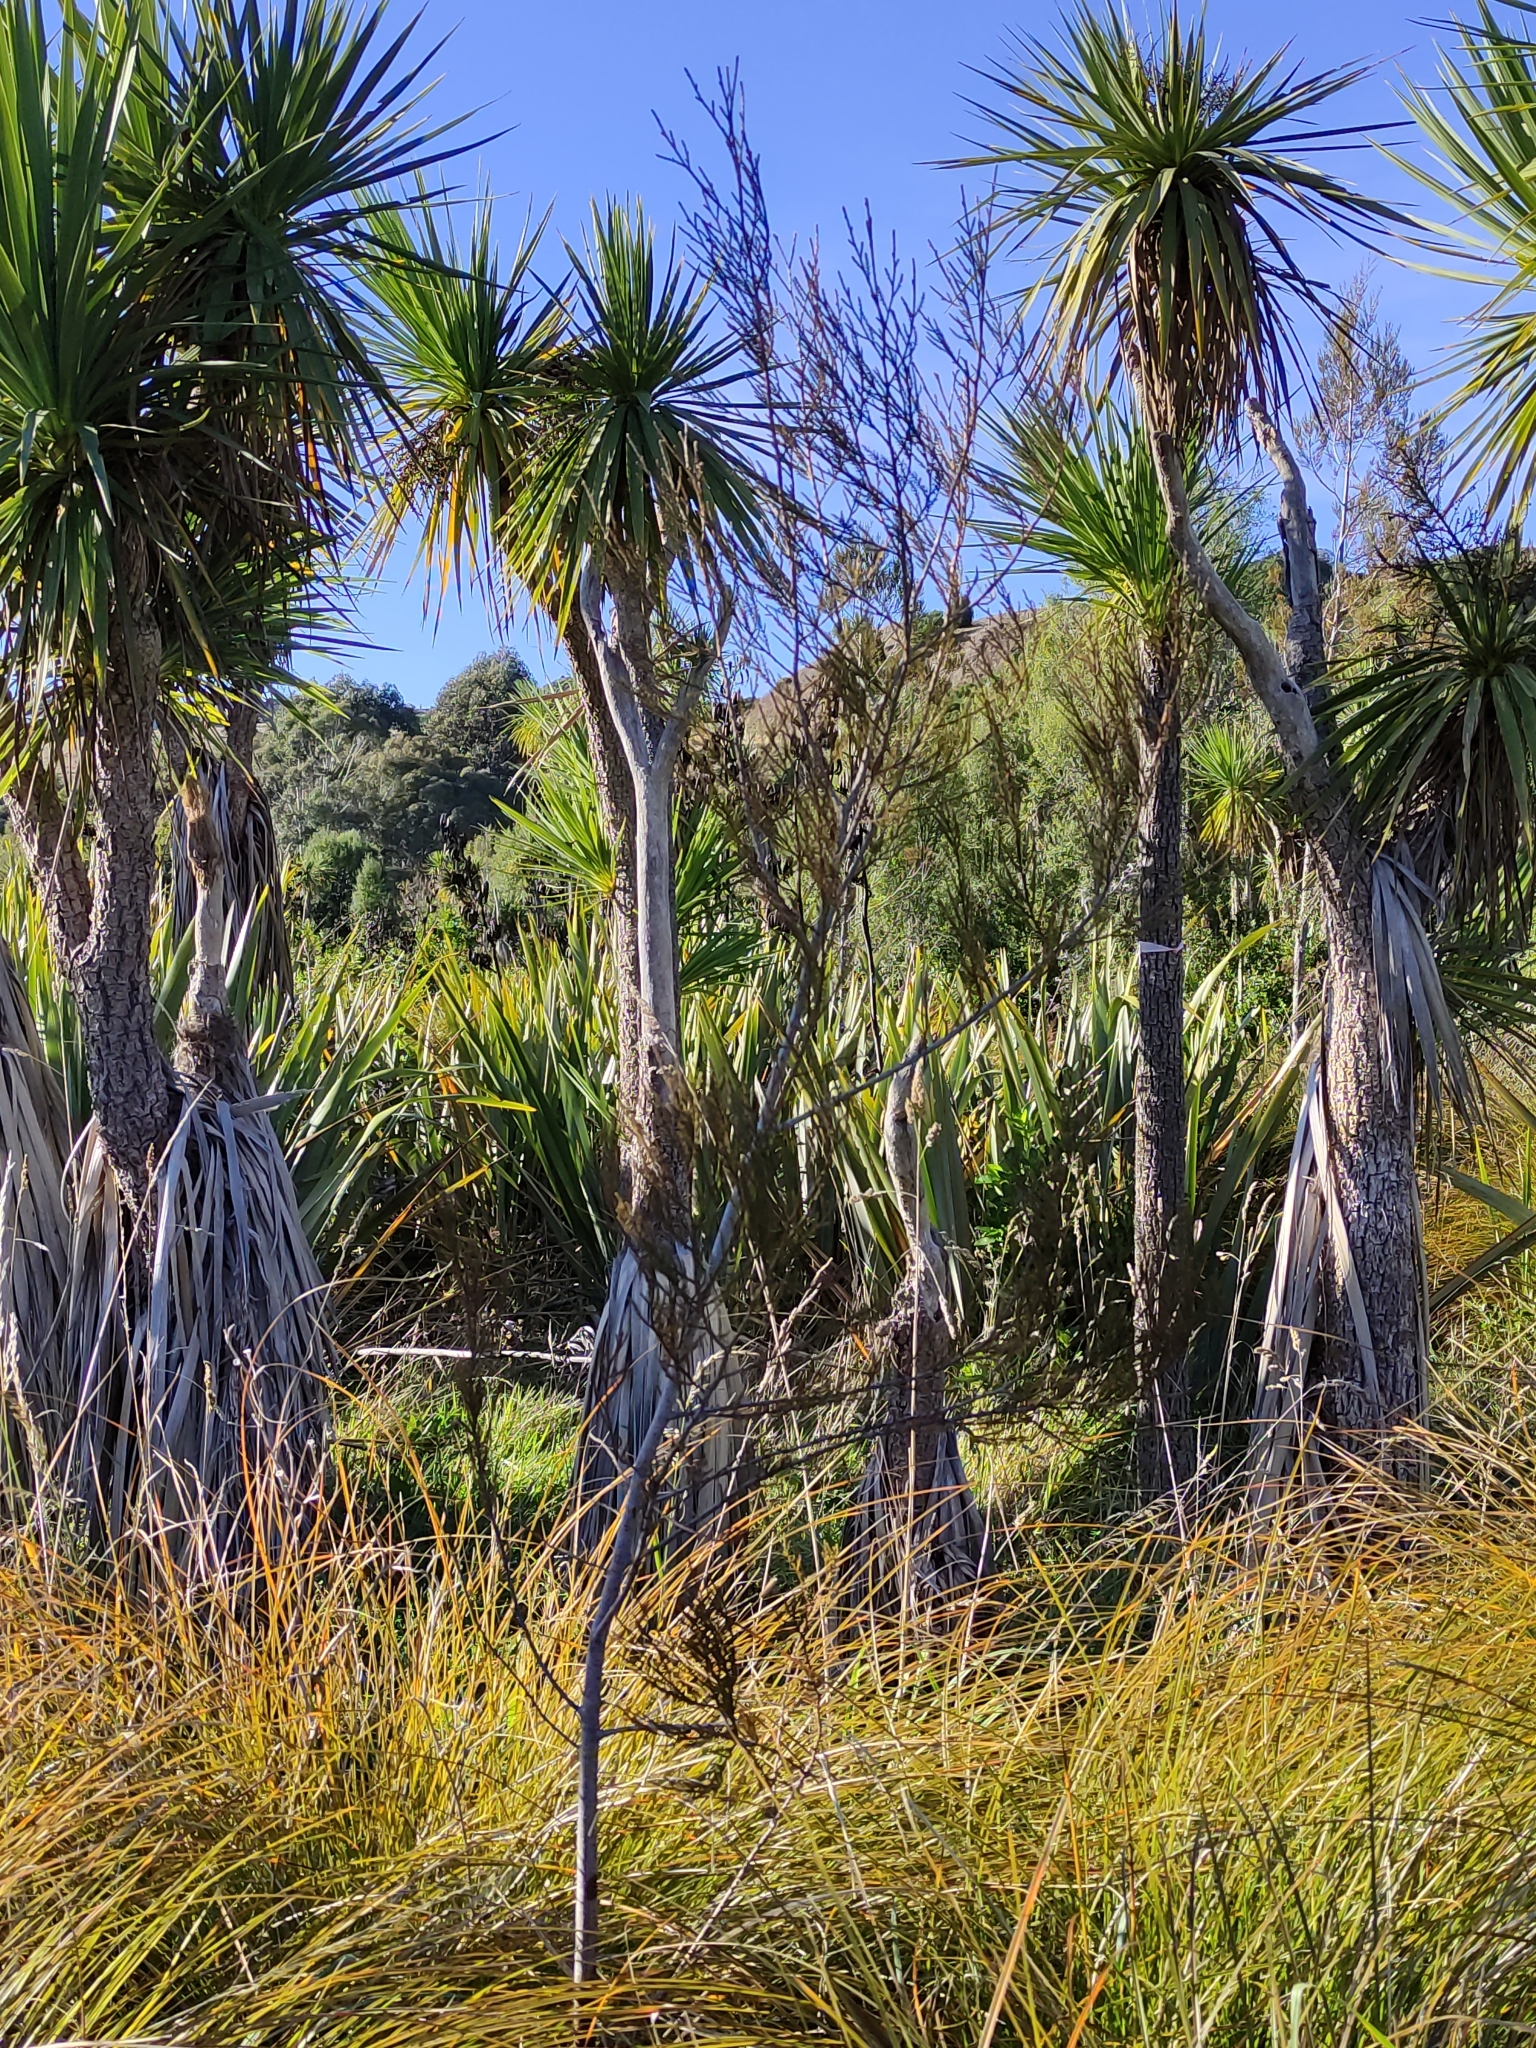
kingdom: Plantae
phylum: Tracheophyta
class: Pinopsida
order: Pinales
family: Podocarpaceae
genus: Dacrycarpus
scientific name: Dacrycarpus dacrydioides
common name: White pine
